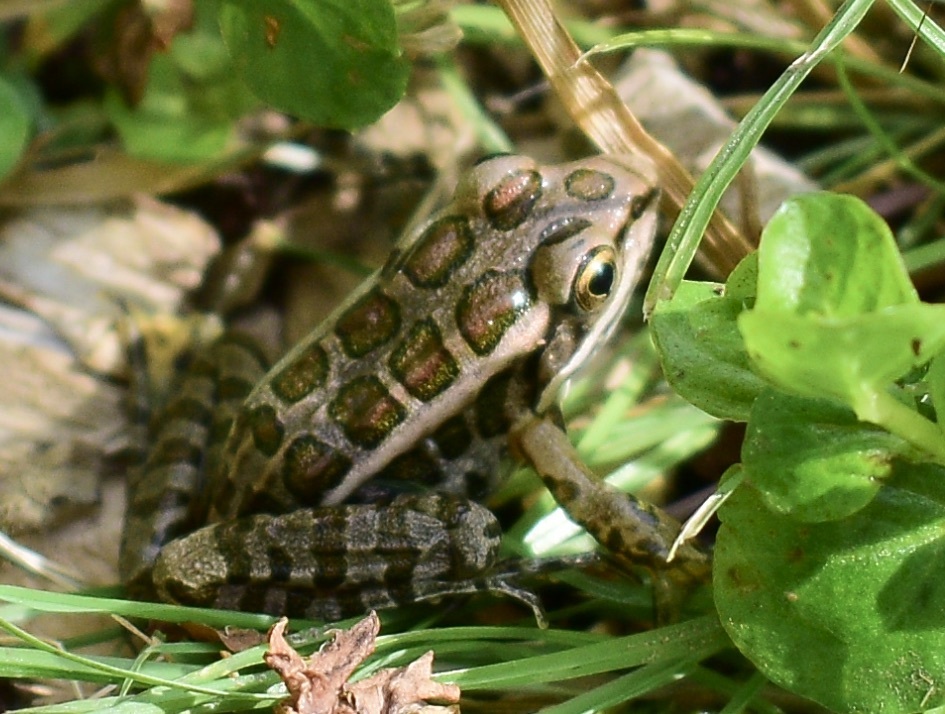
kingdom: Animalia
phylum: Chordata
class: Amphibia
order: Anura
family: Ranidae
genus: Lithobates
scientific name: Lithobates palustris
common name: Pickerel frog
